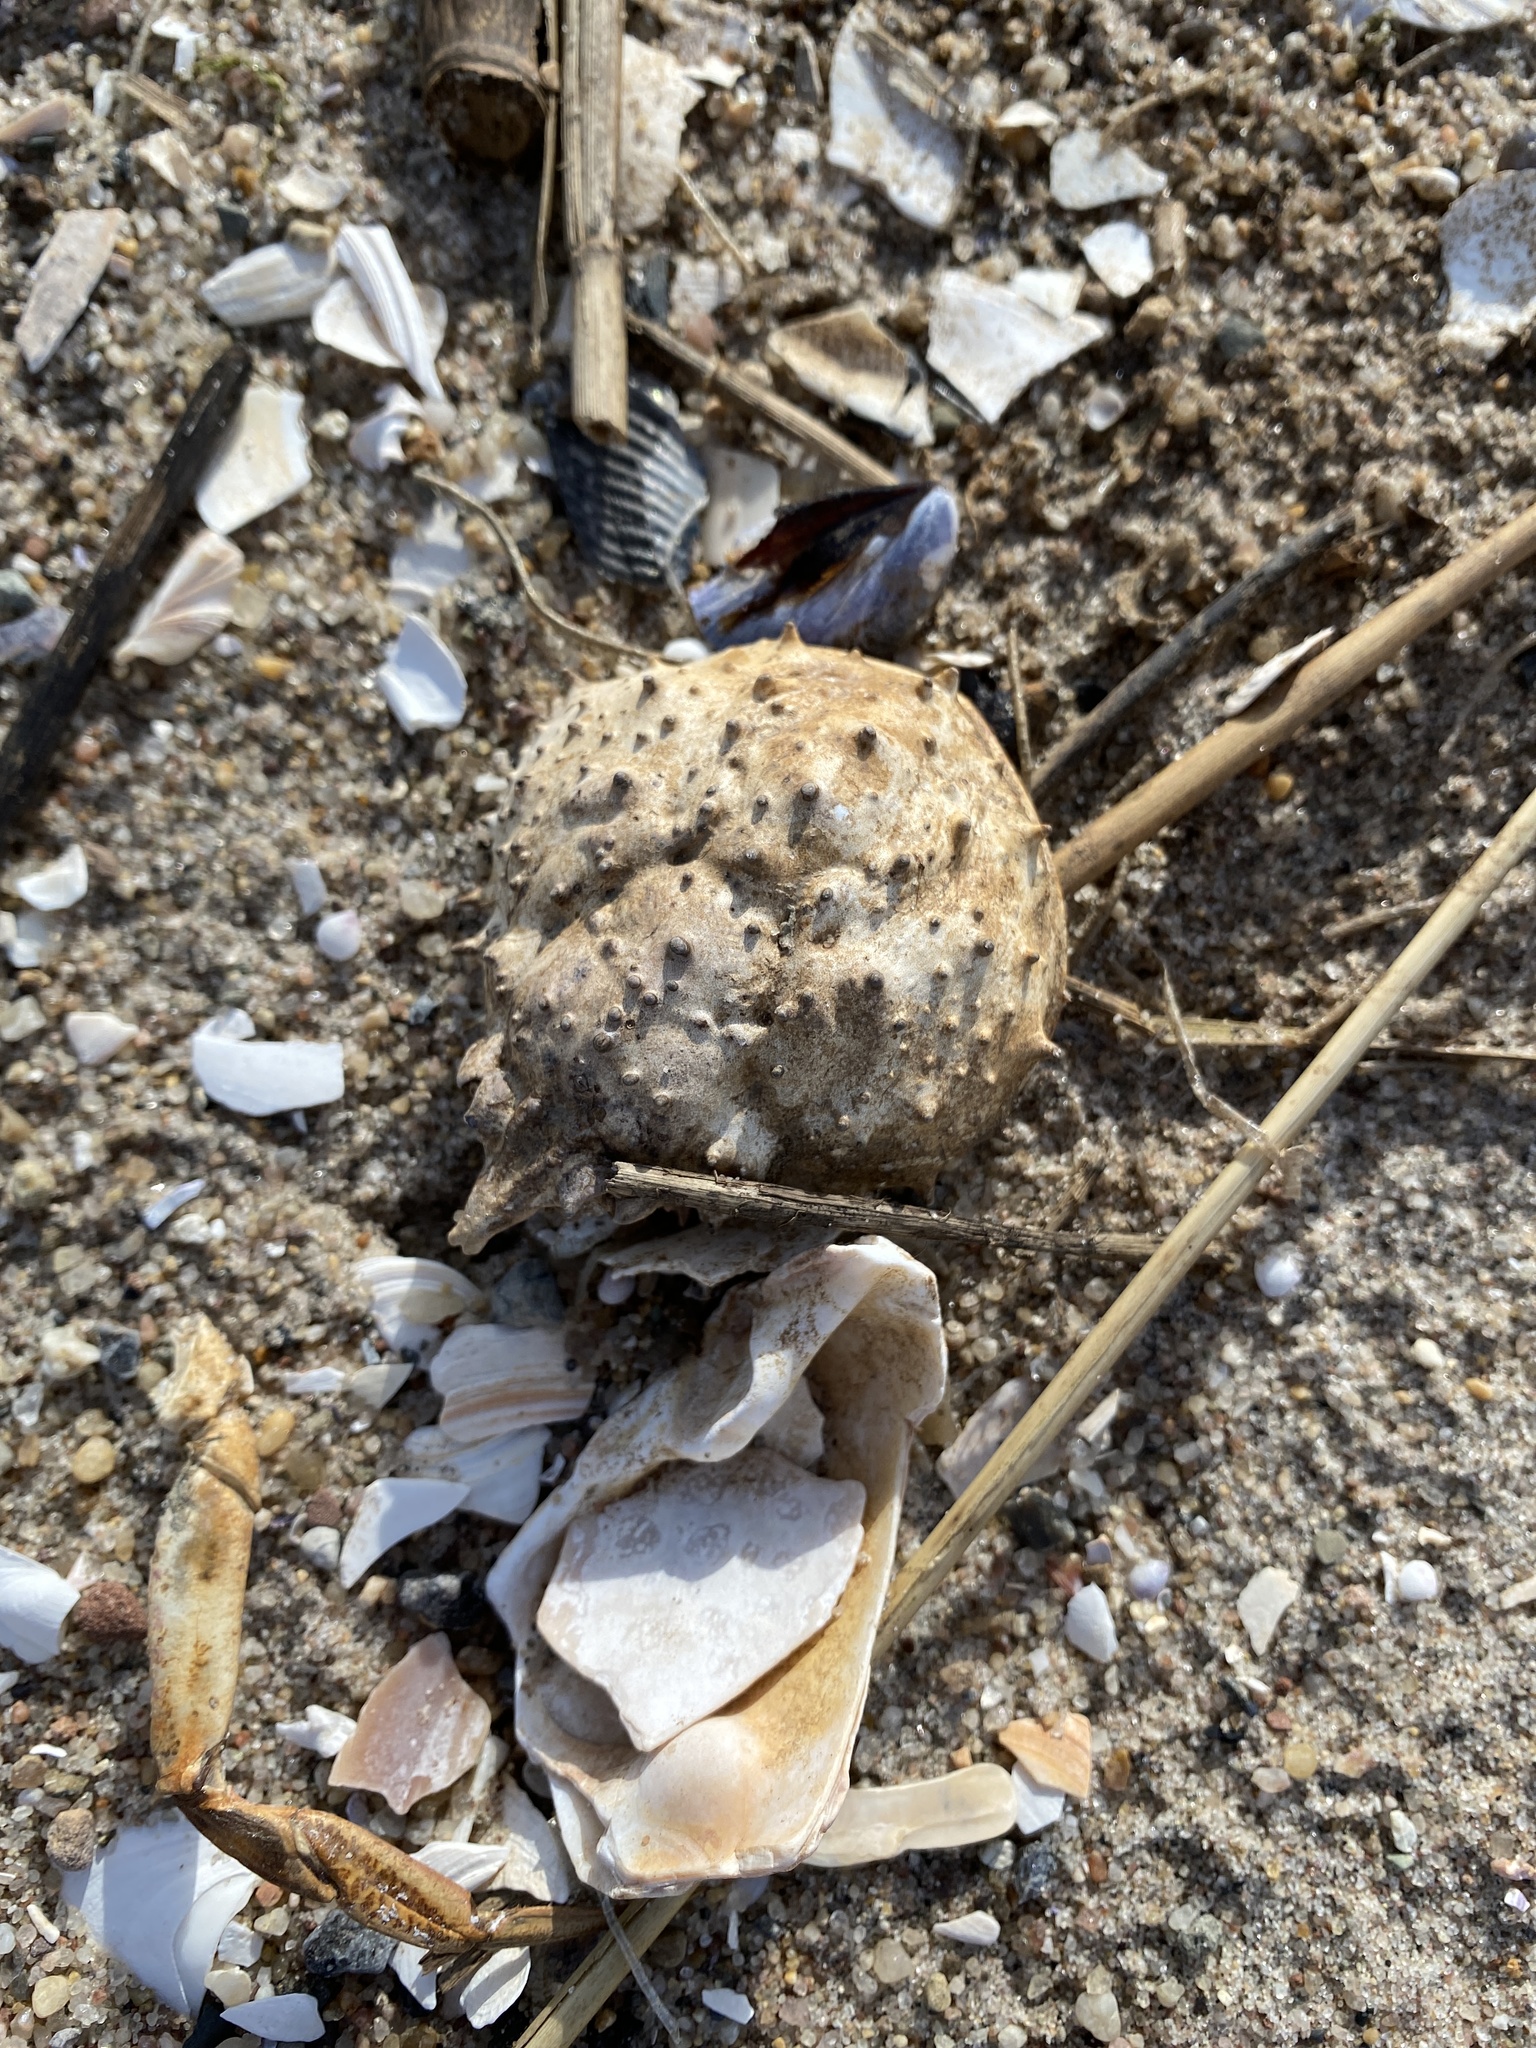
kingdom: Animalia
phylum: Arthropoda
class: Malacostraca
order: Decapoda
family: Epialtidae
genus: Libinia
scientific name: Libinia emarginata
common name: Common spider crab
